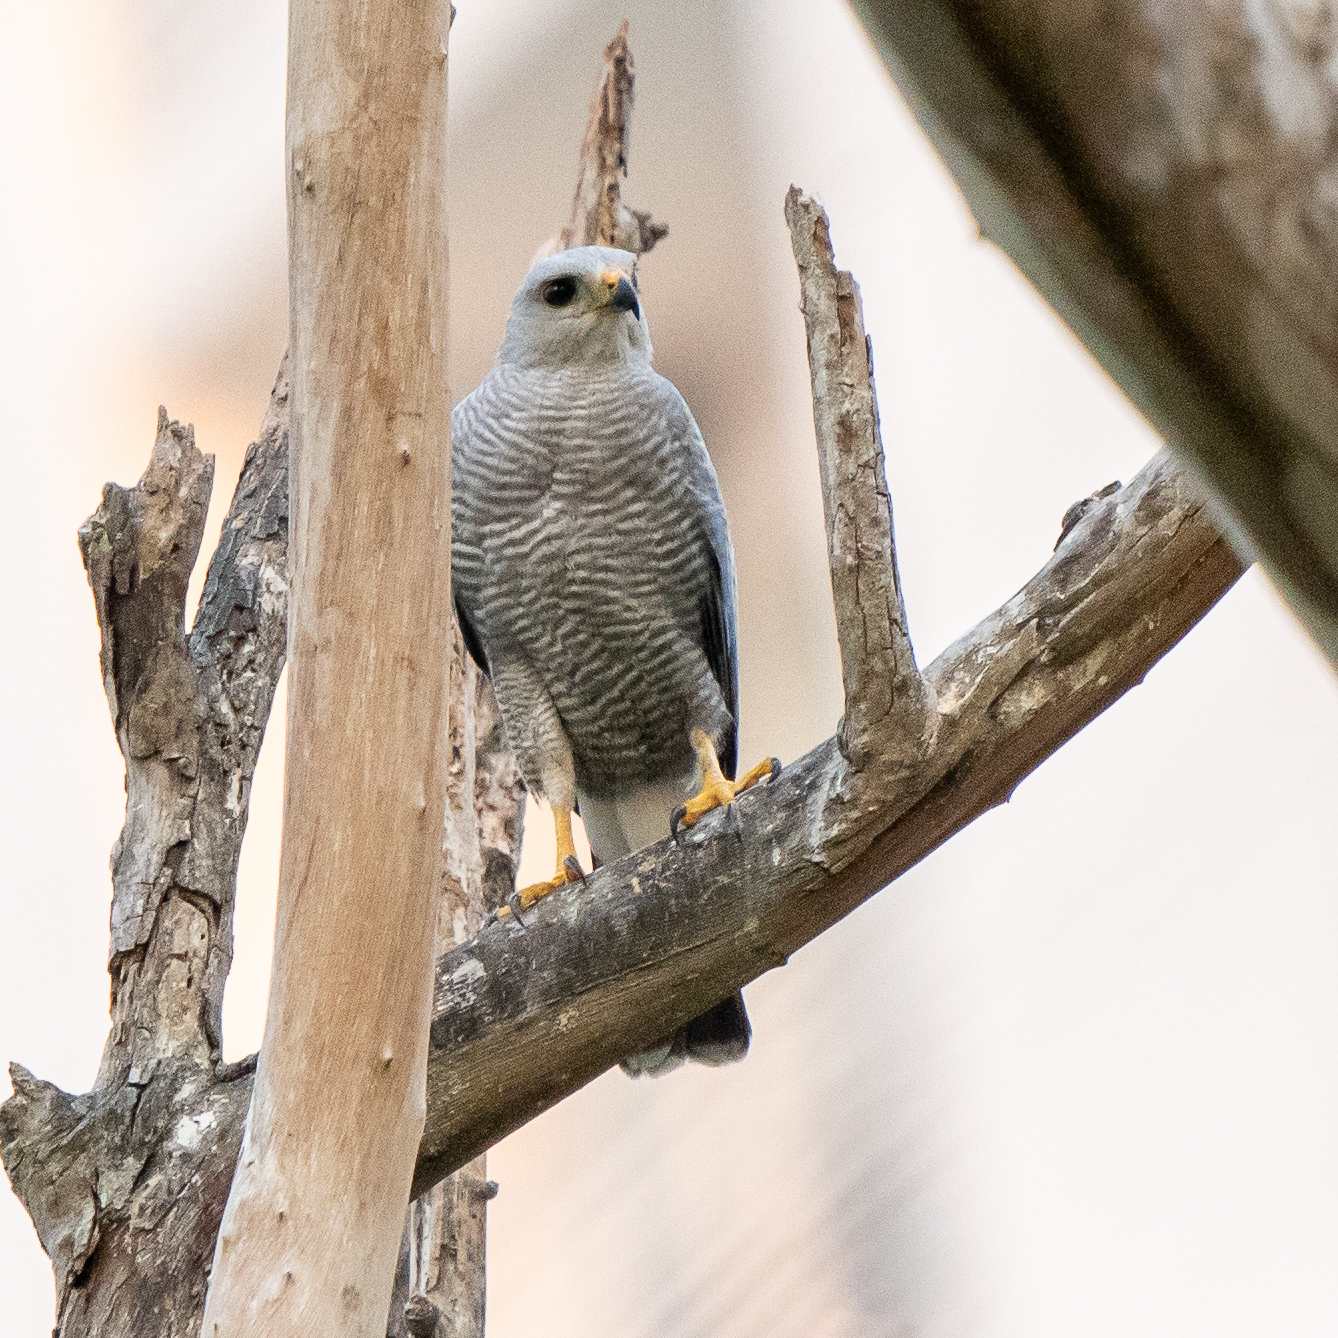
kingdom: Animalia
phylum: Chordata
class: Aves
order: Accipitriformes
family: Accipitridae
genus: Buteo
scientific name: Buteo nitidus
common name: Grey-lined hawk
